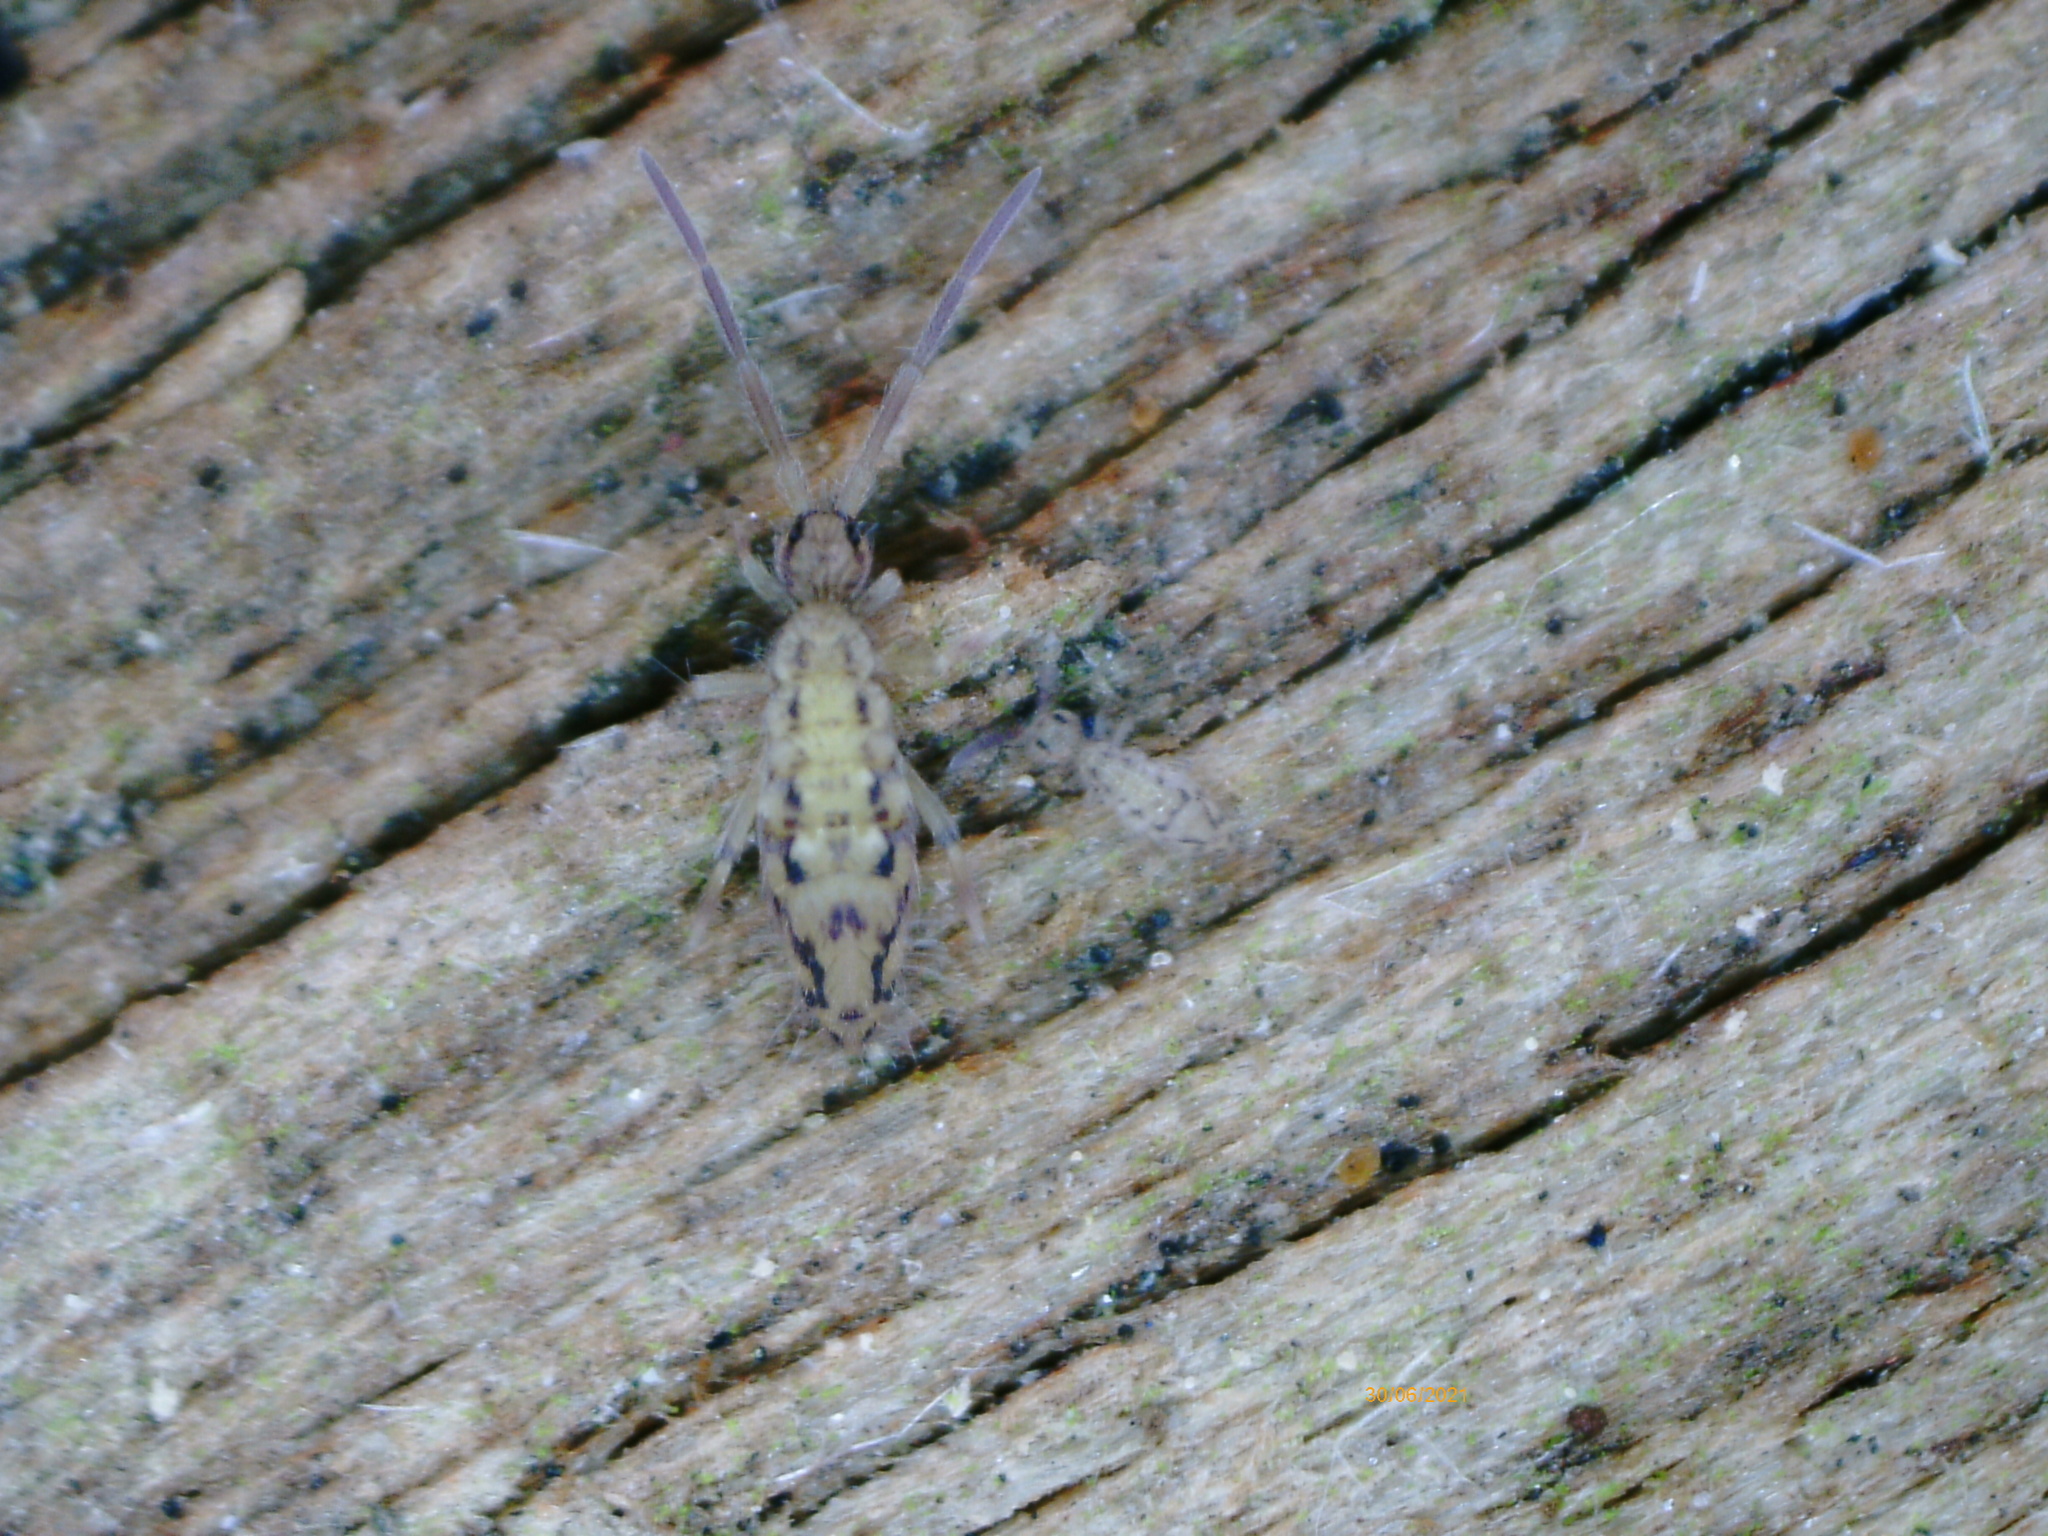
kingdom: Animalia
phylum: Arthropoda
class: Collembola
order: Entomobryomorpha
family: Entomobryidae
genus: Entomobrya
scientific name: Entomobrya intermedia
